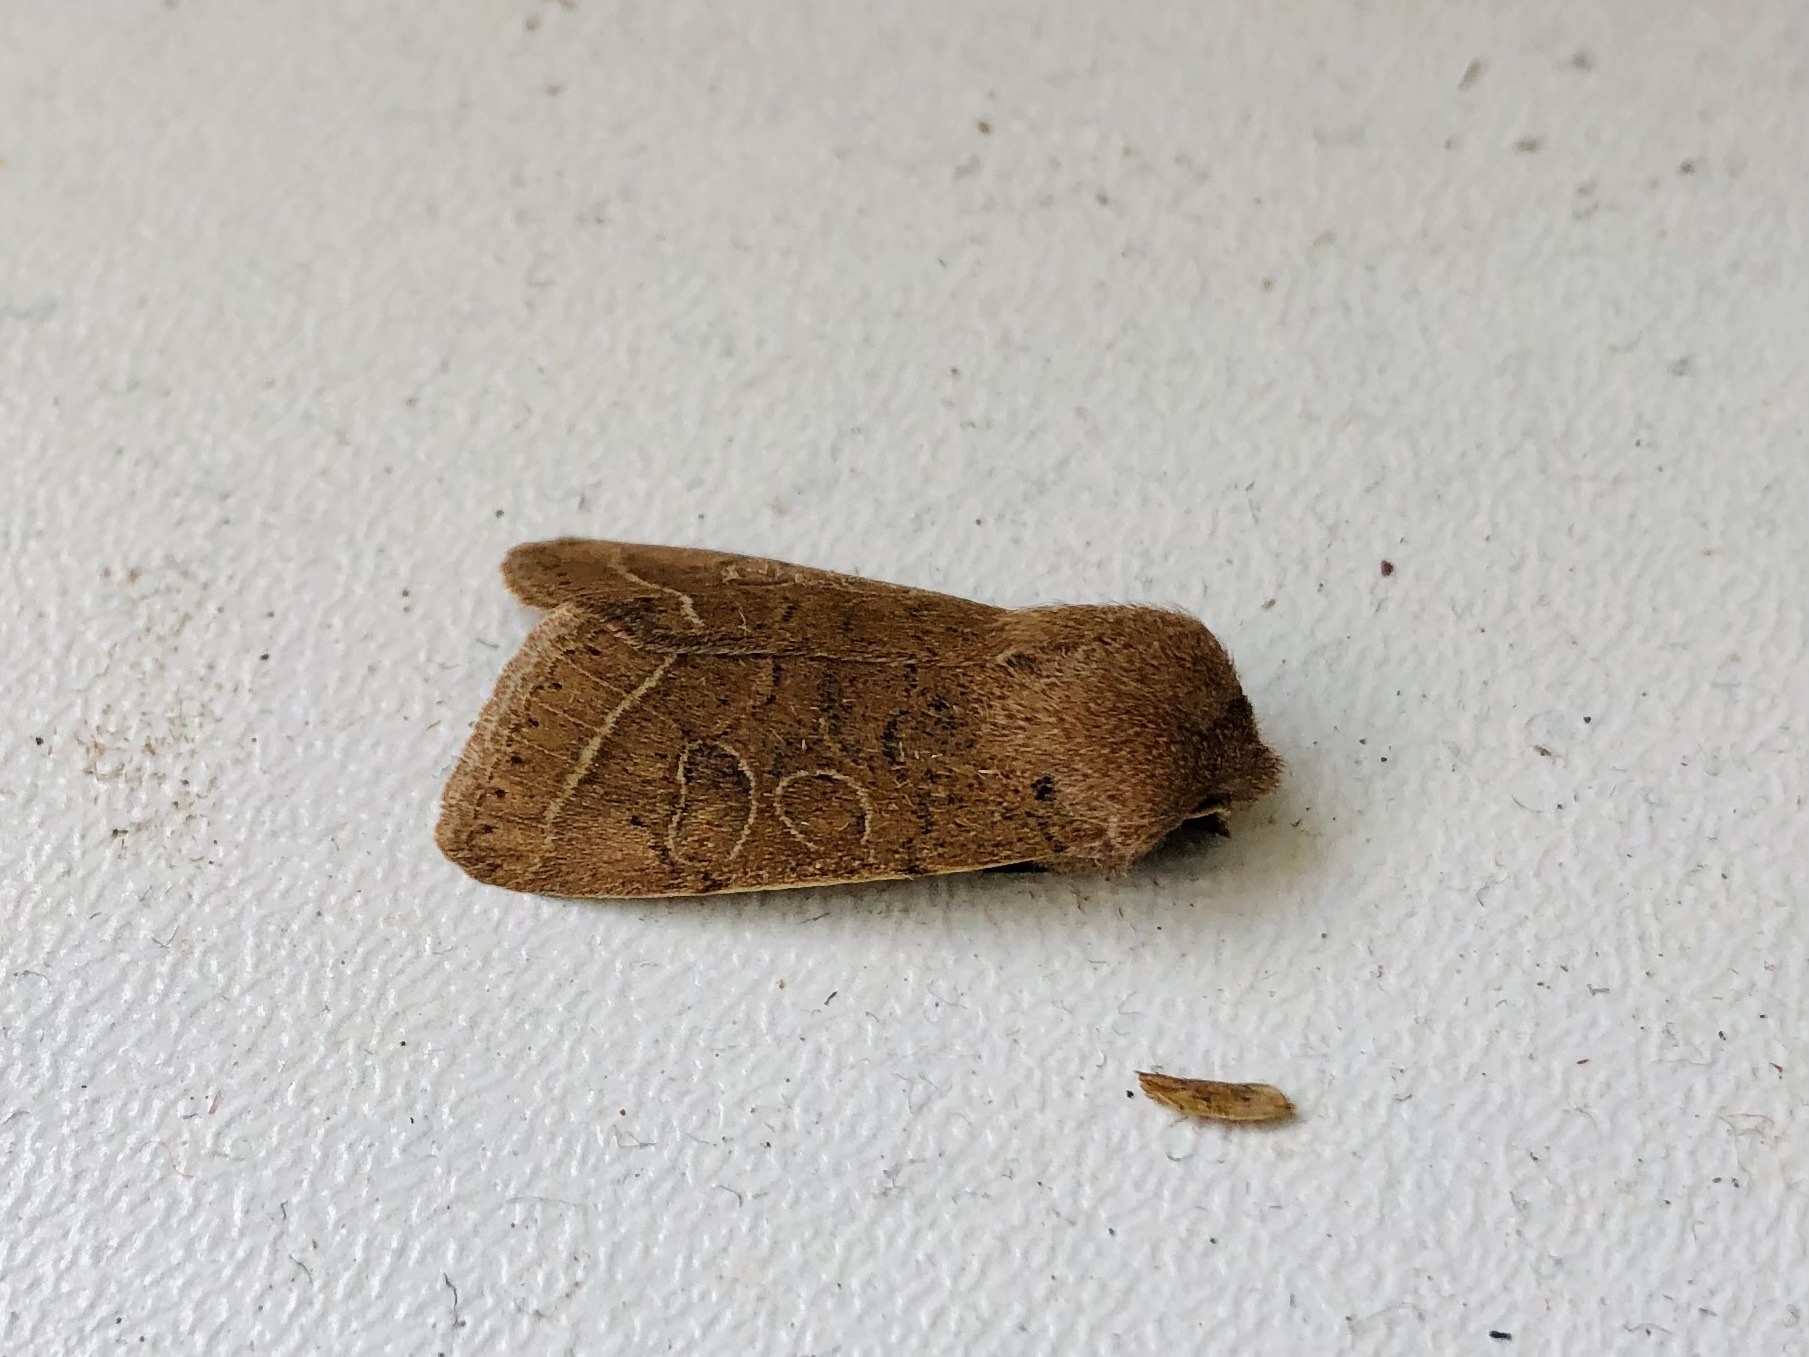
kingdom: Animalia
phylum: Arthropoda
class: Insecta
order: Lepidoptera
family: Noctuidae
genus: Orthosia
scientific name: Orthosia cerasi
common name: Common quaker
